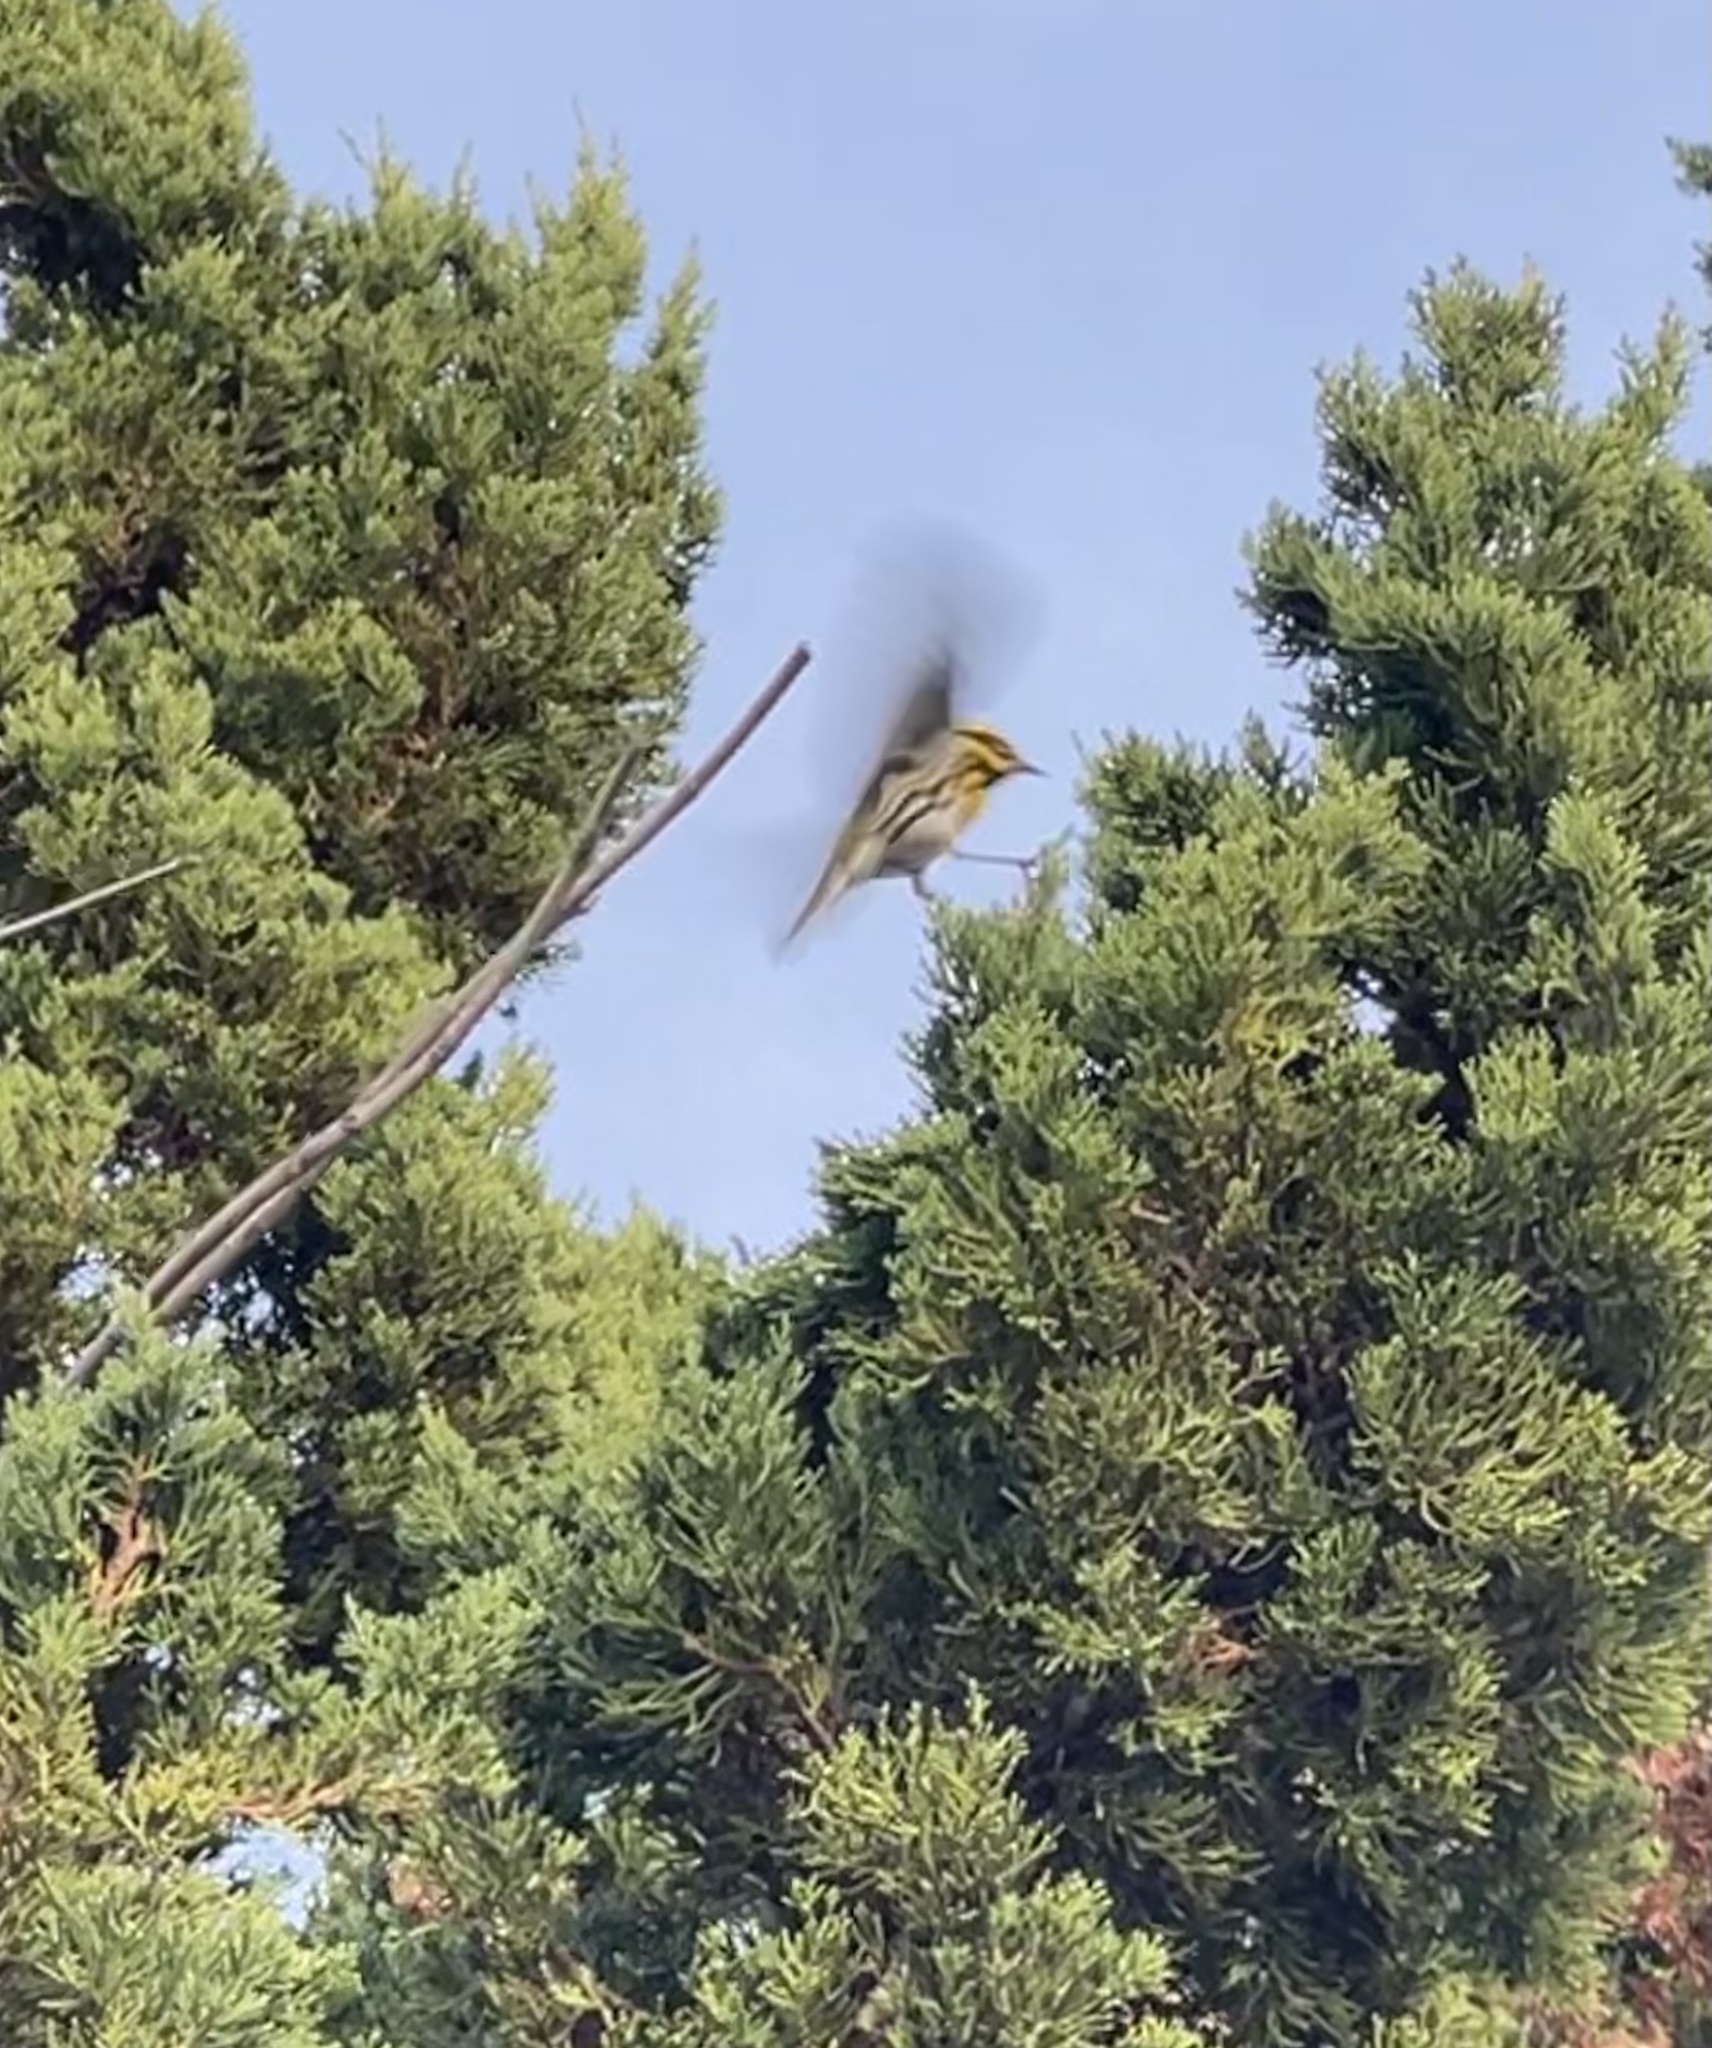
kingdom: Animalia
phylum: Chordata
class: Aves
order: Passeriformes
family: Parulidae
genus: Setophaga
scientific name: Setophaga townsendi
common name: Townsend's warbler
